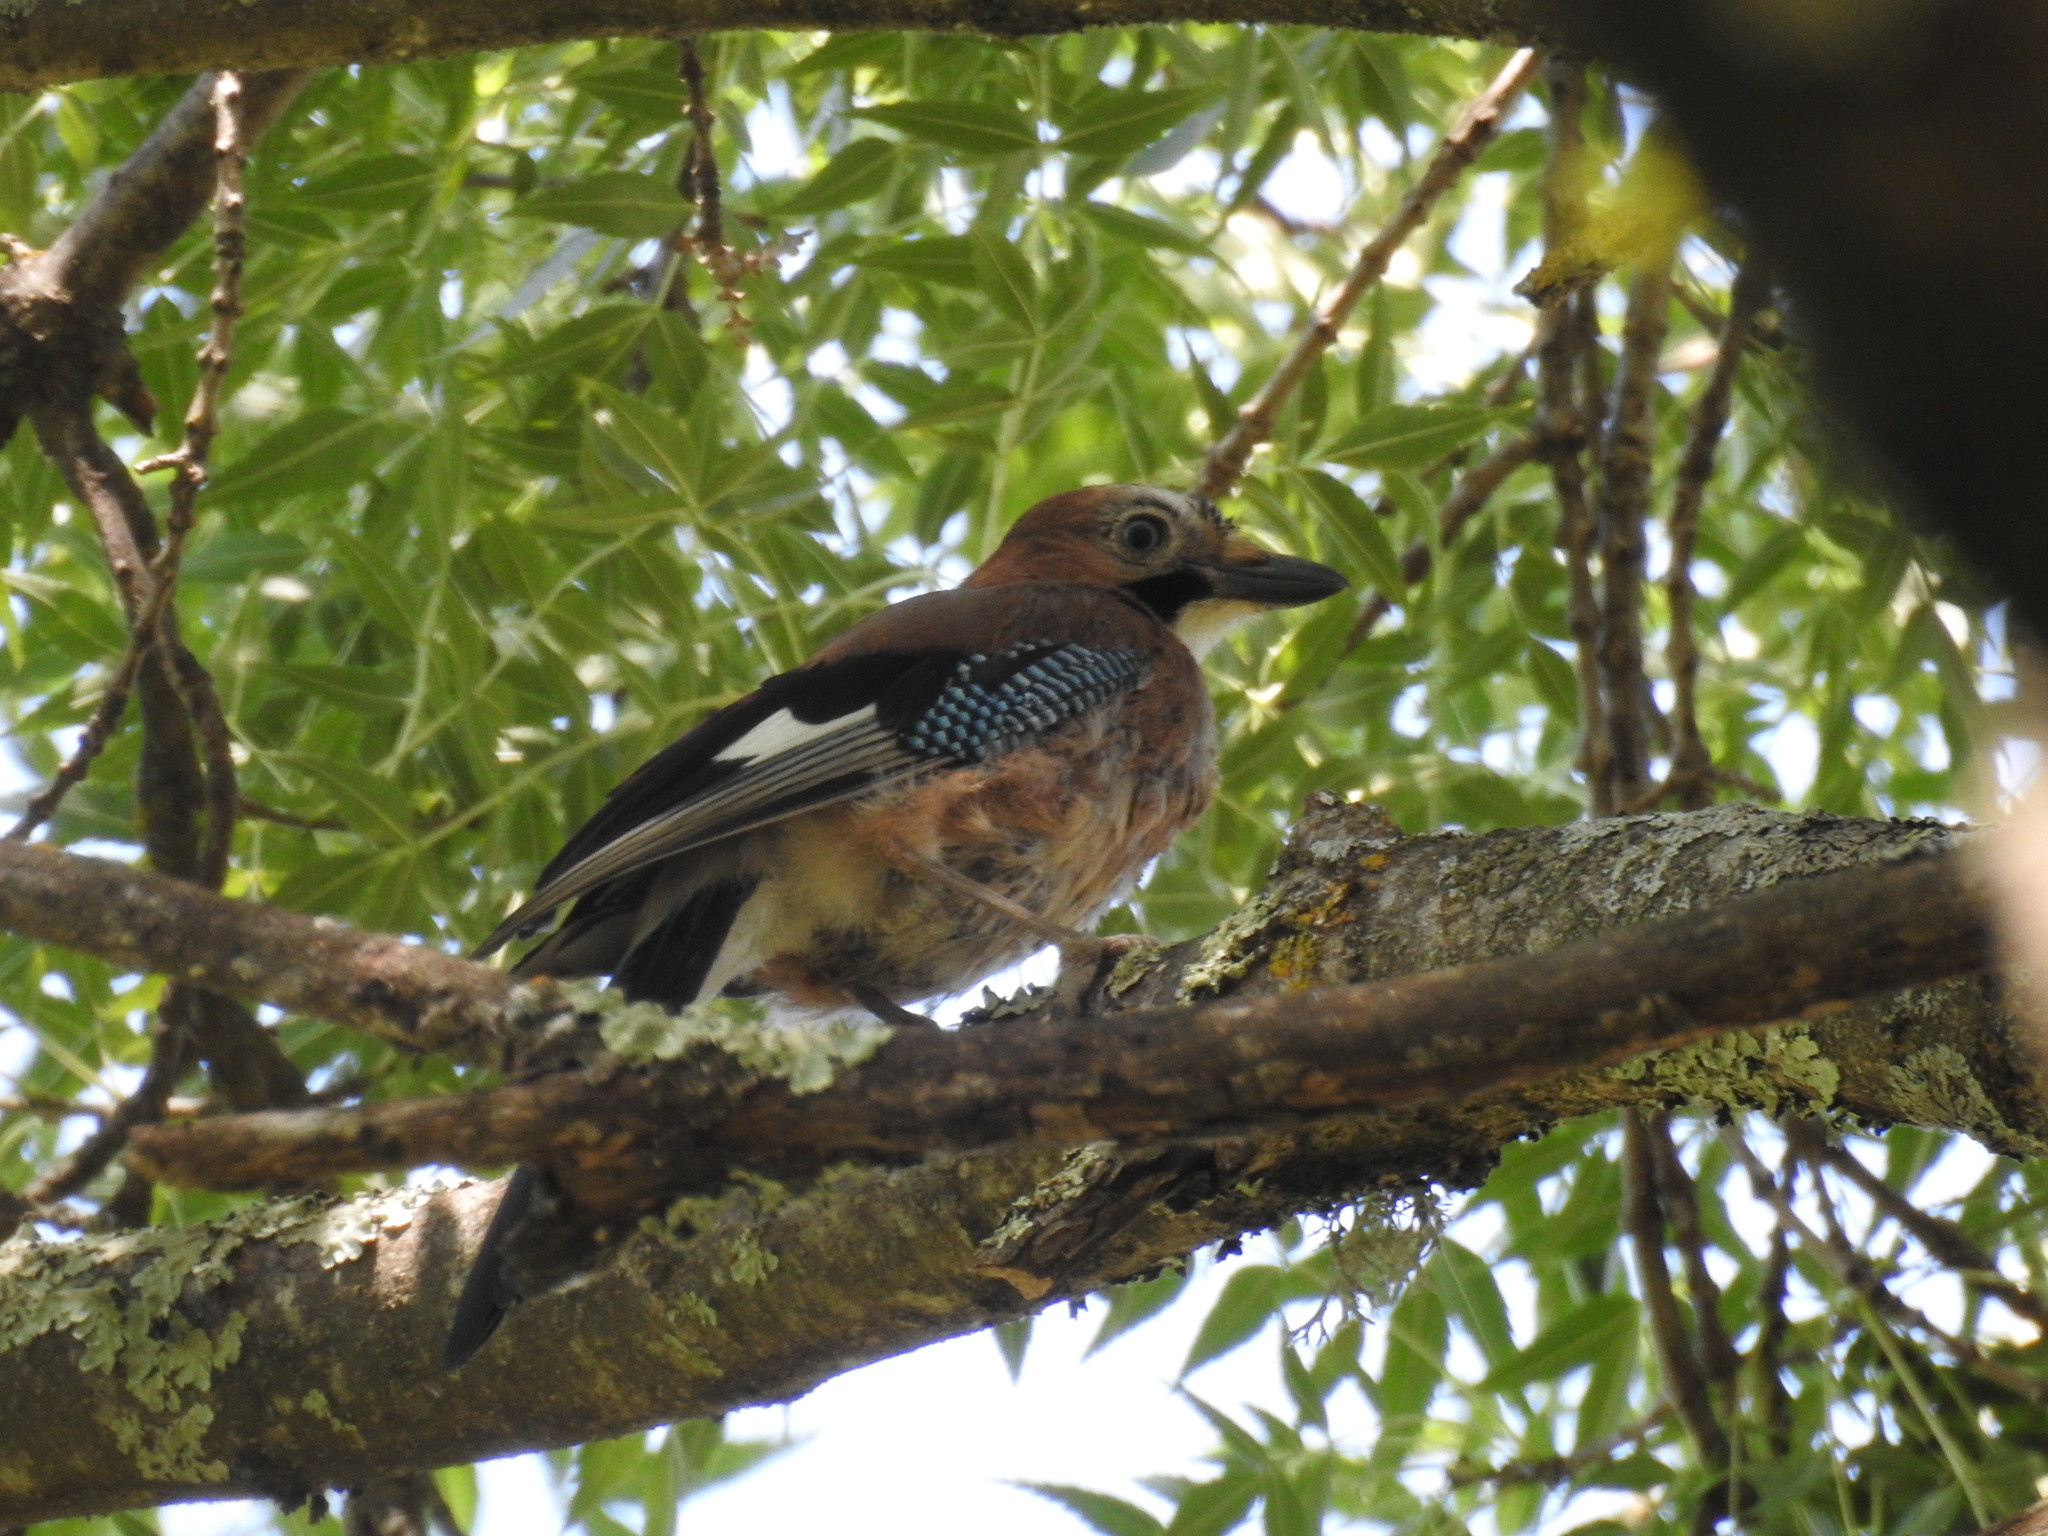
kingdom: Animalia
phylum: Chordata
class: Aves
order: Passeriformes
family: Corvidae
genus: Garrulus
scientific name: Garrulus glandarius
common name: Eurasian jay
